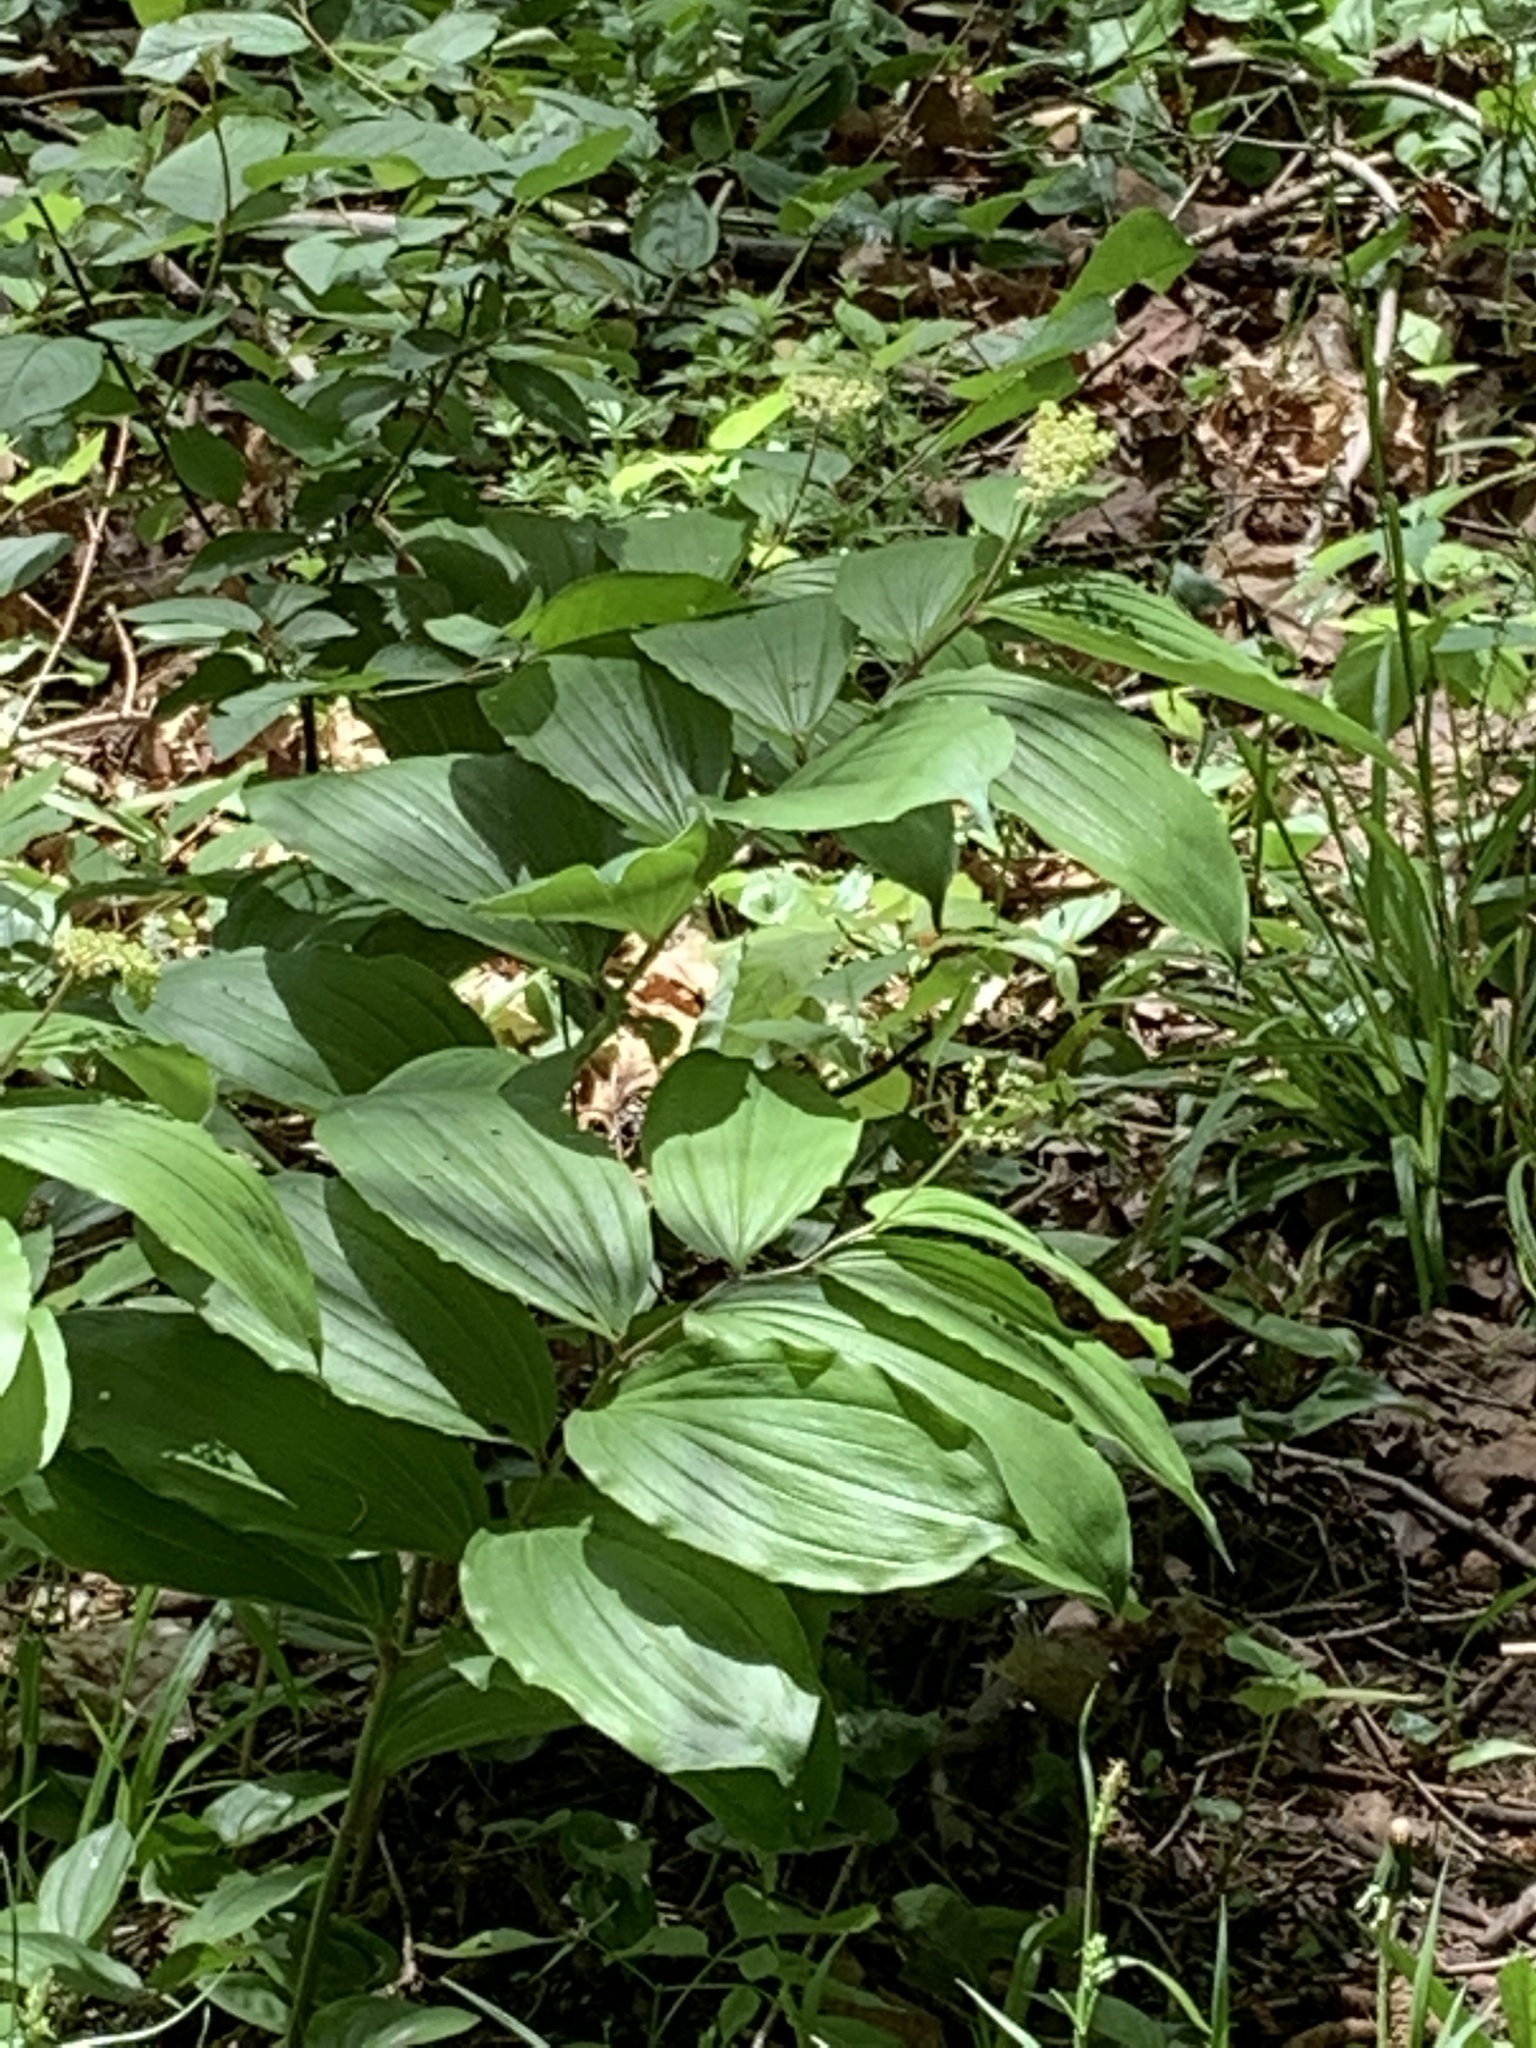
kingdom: Plantae
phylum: Tracheophyta
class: Liliopsida
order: Asparagales
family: Asparagaceae
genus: Maianthemum
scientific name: Maianthemum racemosum
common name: False spikenard
